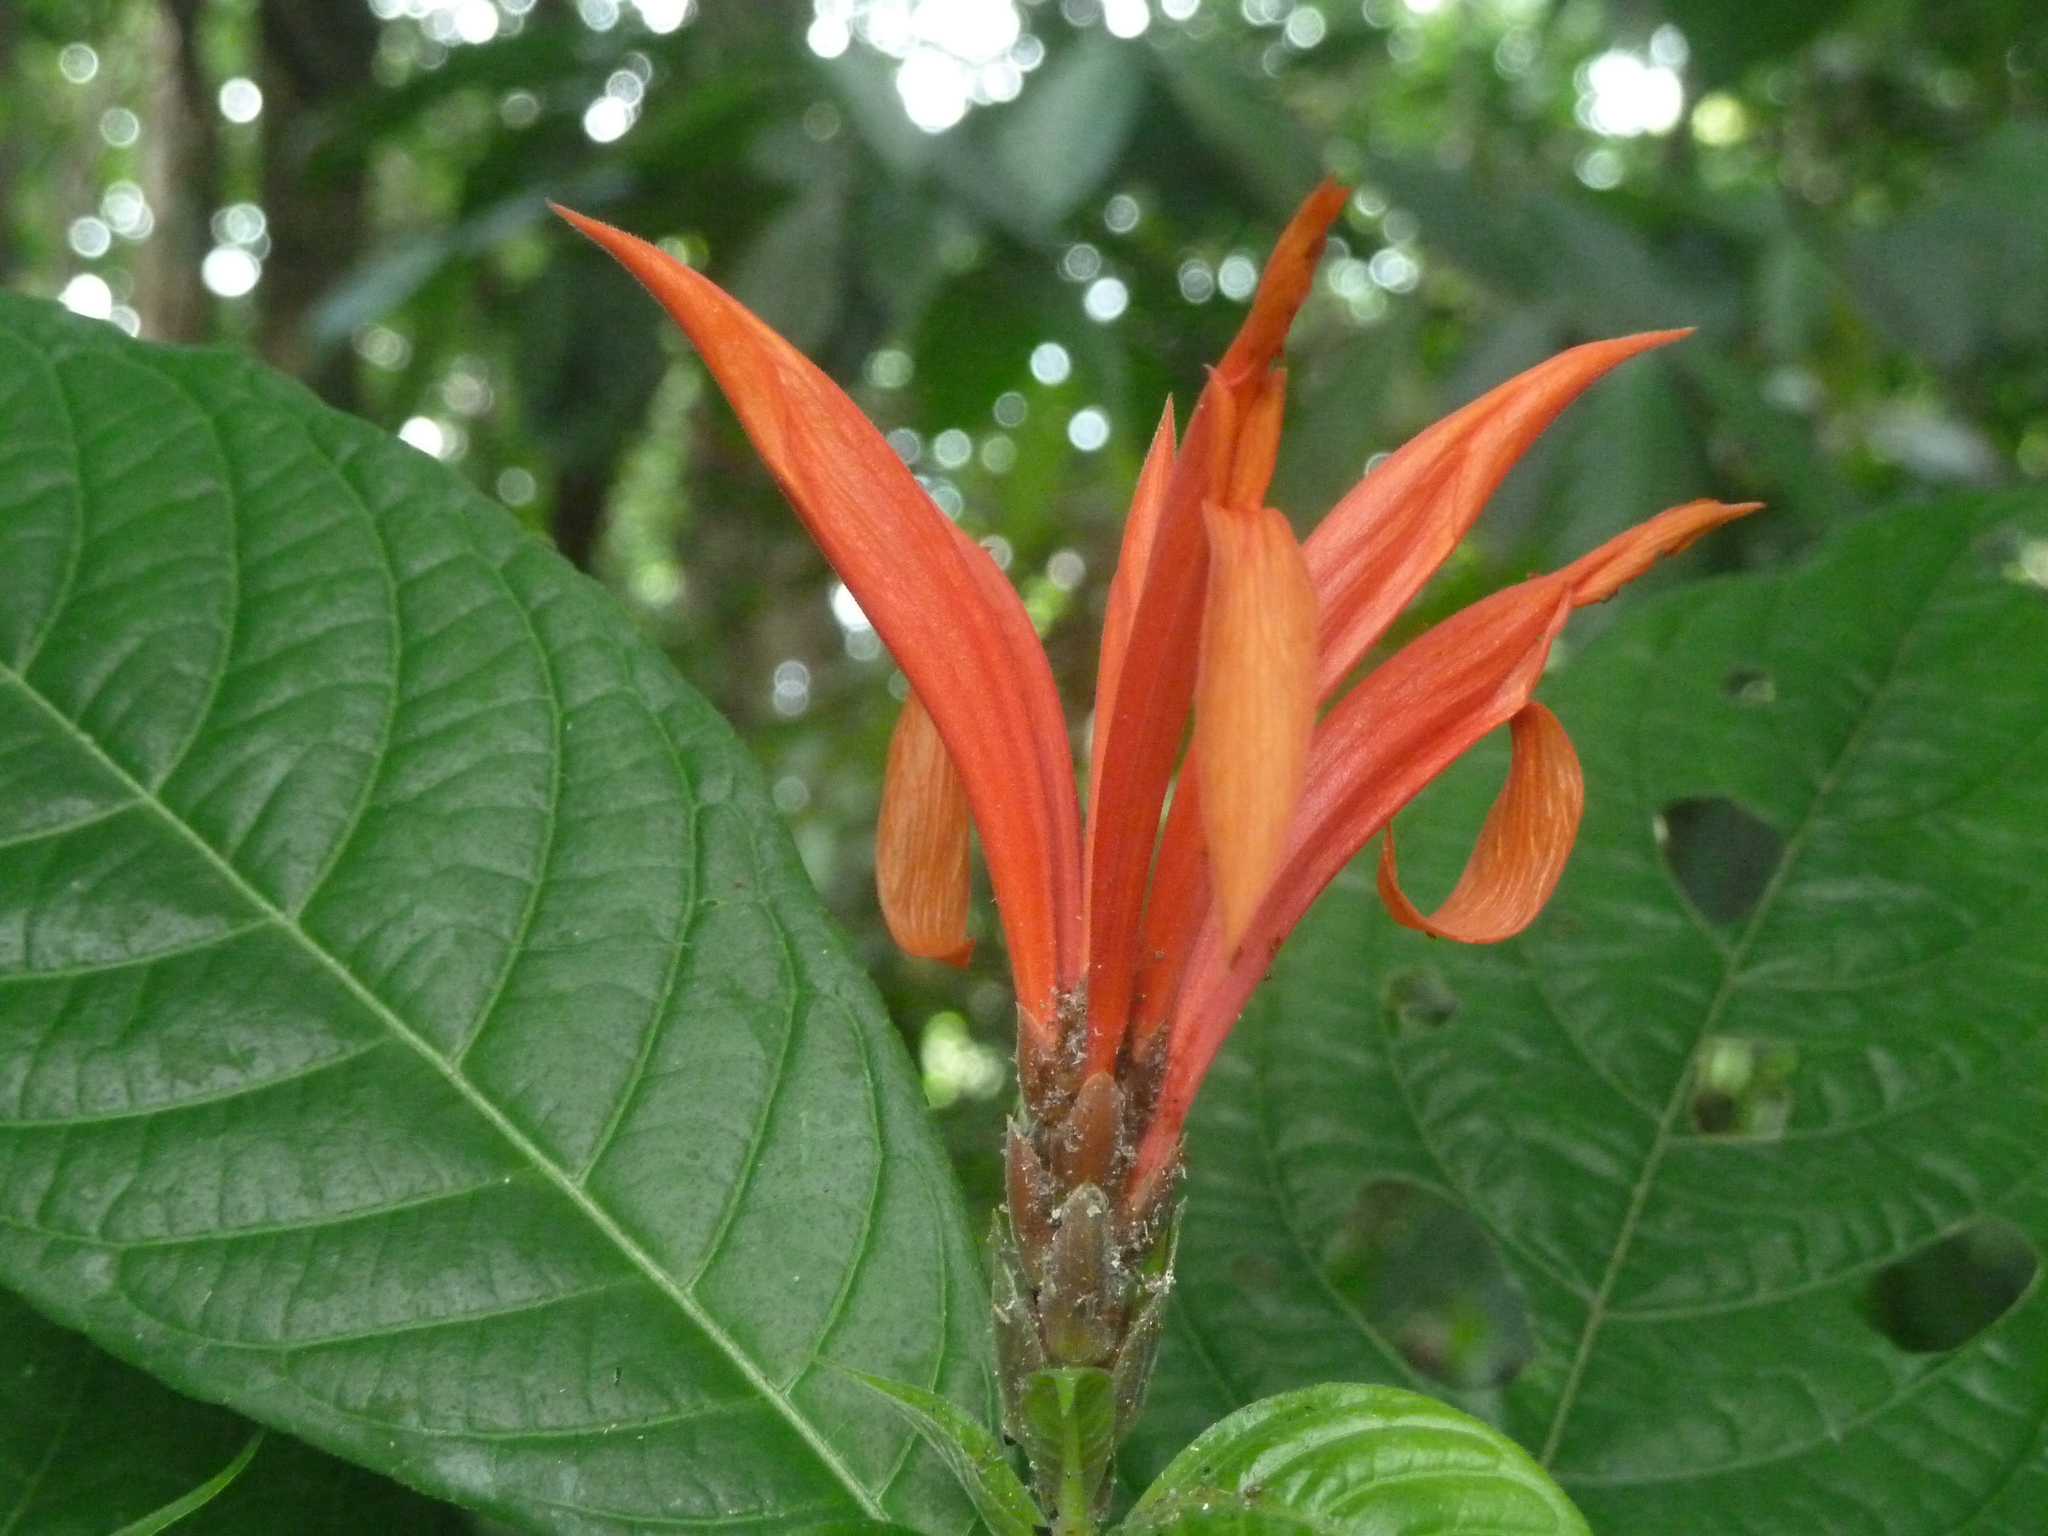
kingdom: Plantae
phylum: Tracheophyta
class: Magnoliopsida
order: Lamiales
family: Acanthaceae
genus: Aphelandra
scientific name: Aphelandra golfodulcensis
